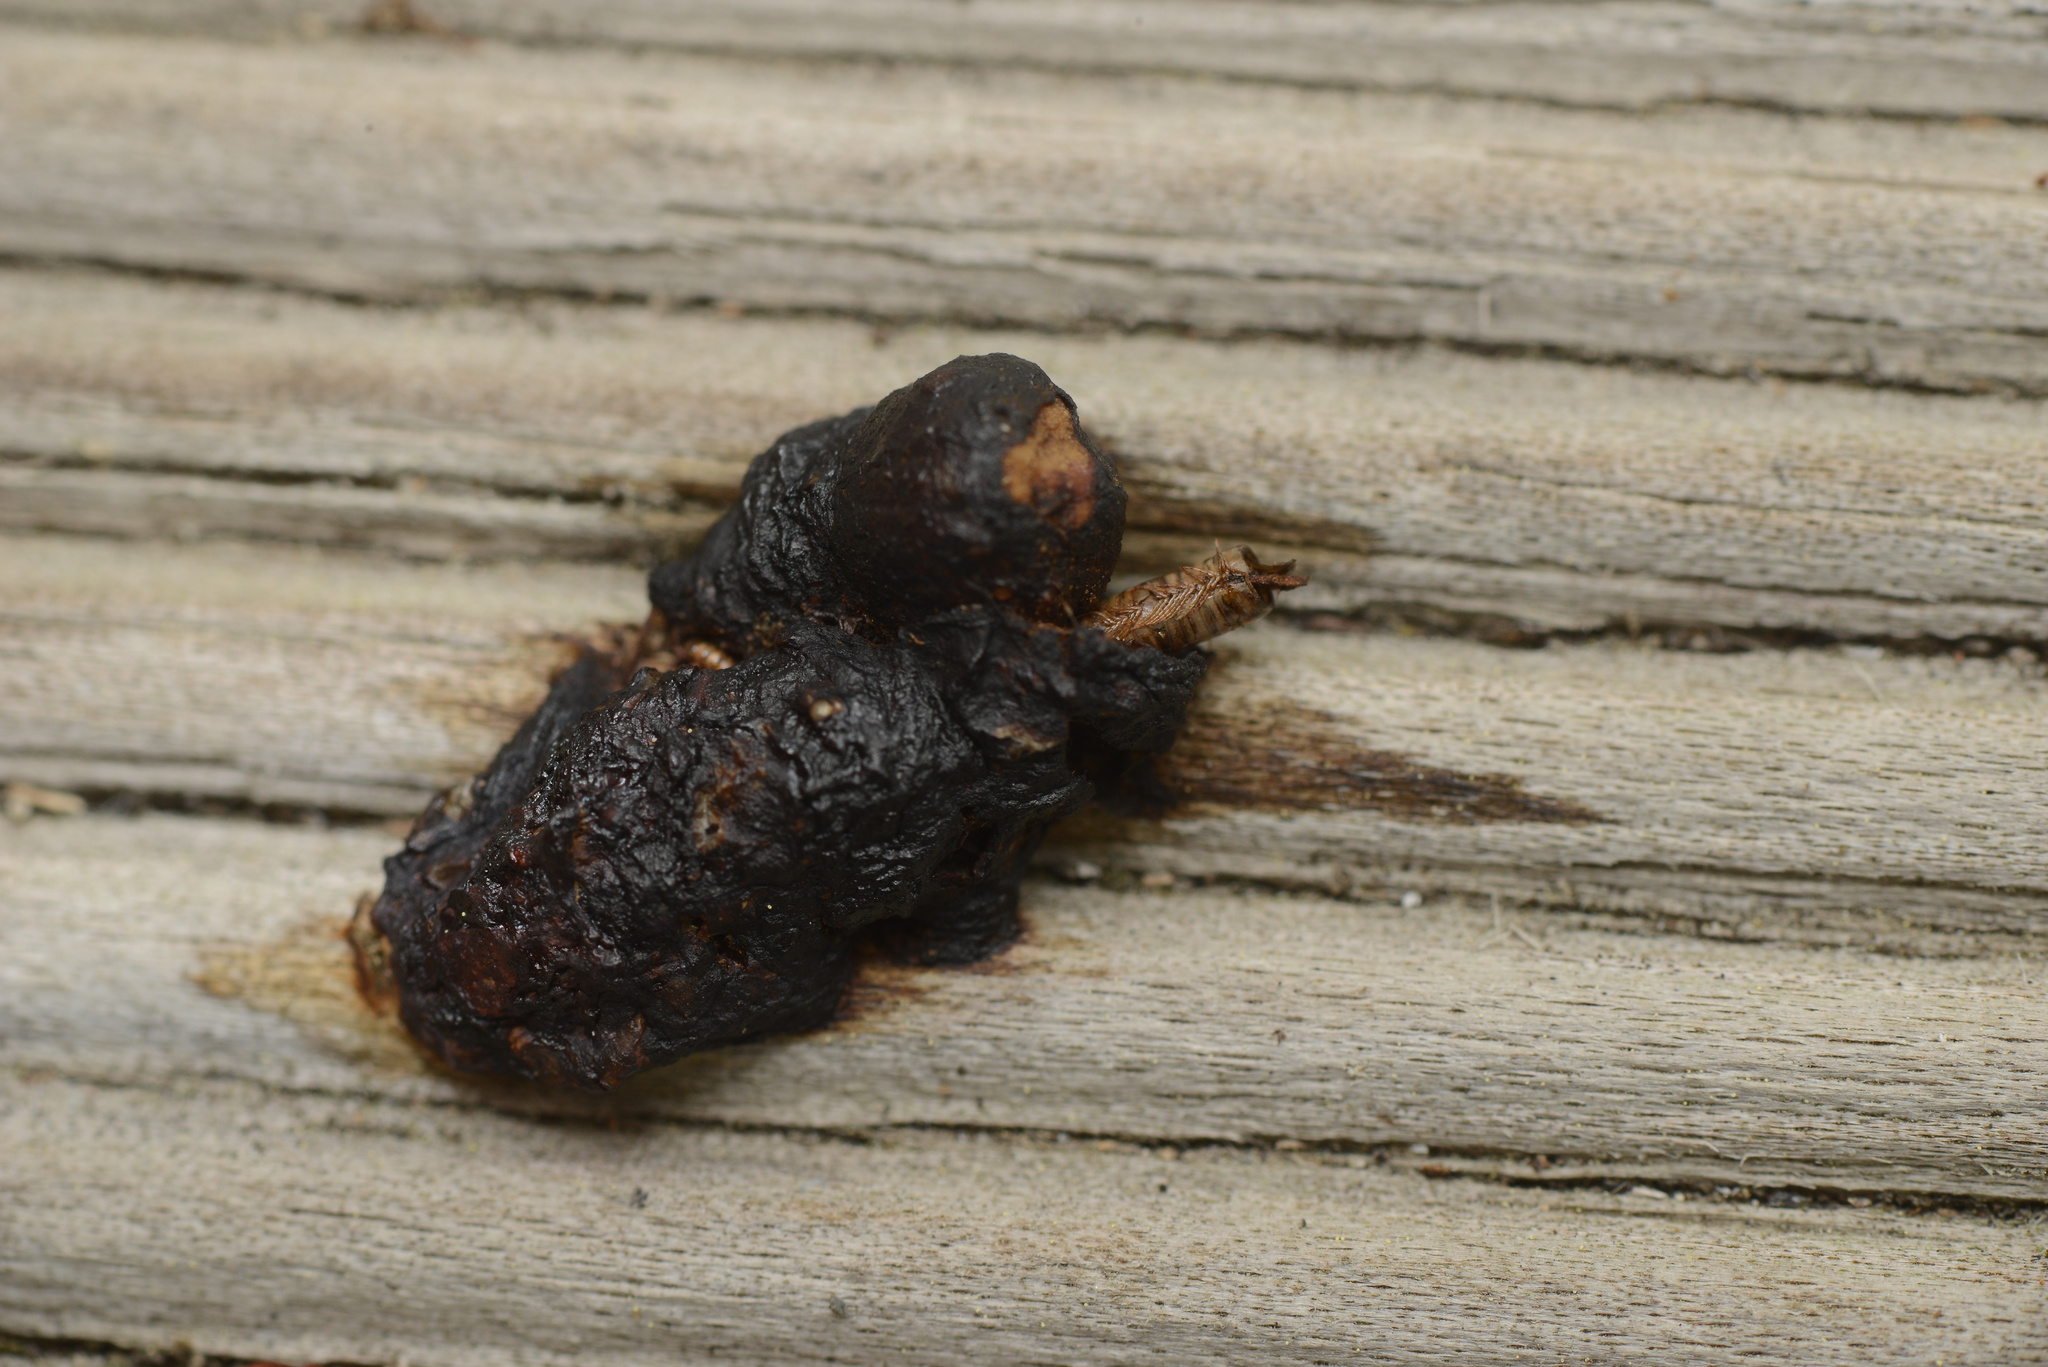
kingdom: Animalia
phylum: Chordata
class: Mammalia
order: Erinaceomorpha
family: Erinaceidae
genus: Erinaceus
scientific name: Erinaceus europaeus
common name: West european hedgehog
